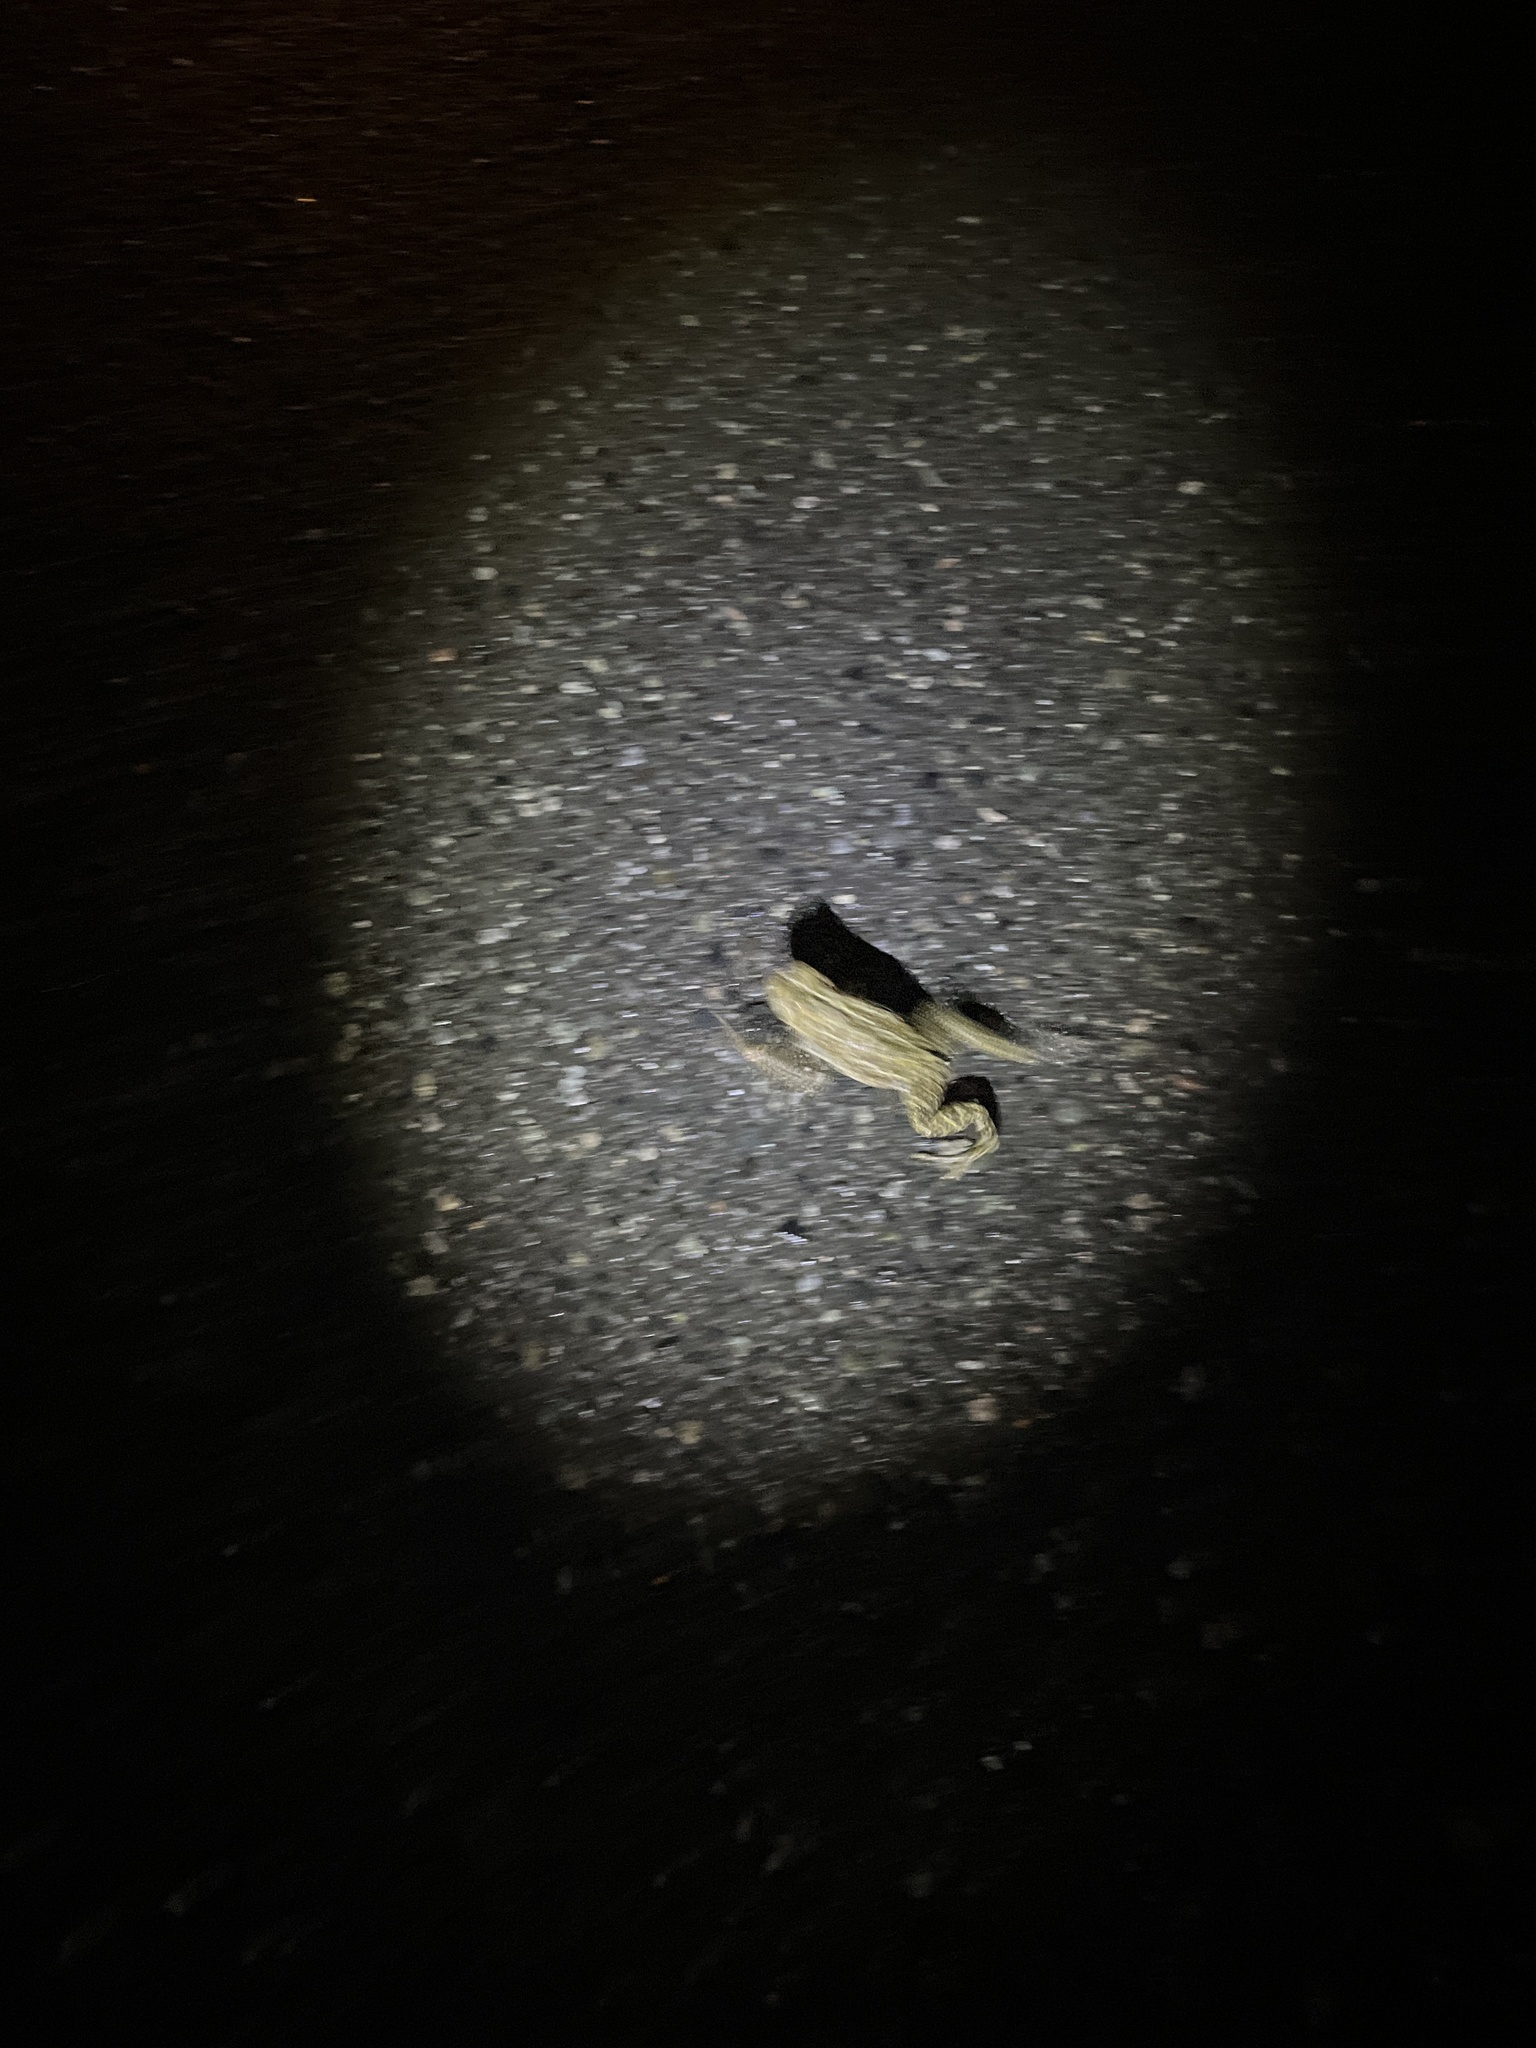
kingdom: Animalia
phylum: Chordata
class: Amphibia
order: Anura
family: Bufonidae
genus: Anaxyrus
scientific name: Anaxyrus boreas
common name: Western toad
